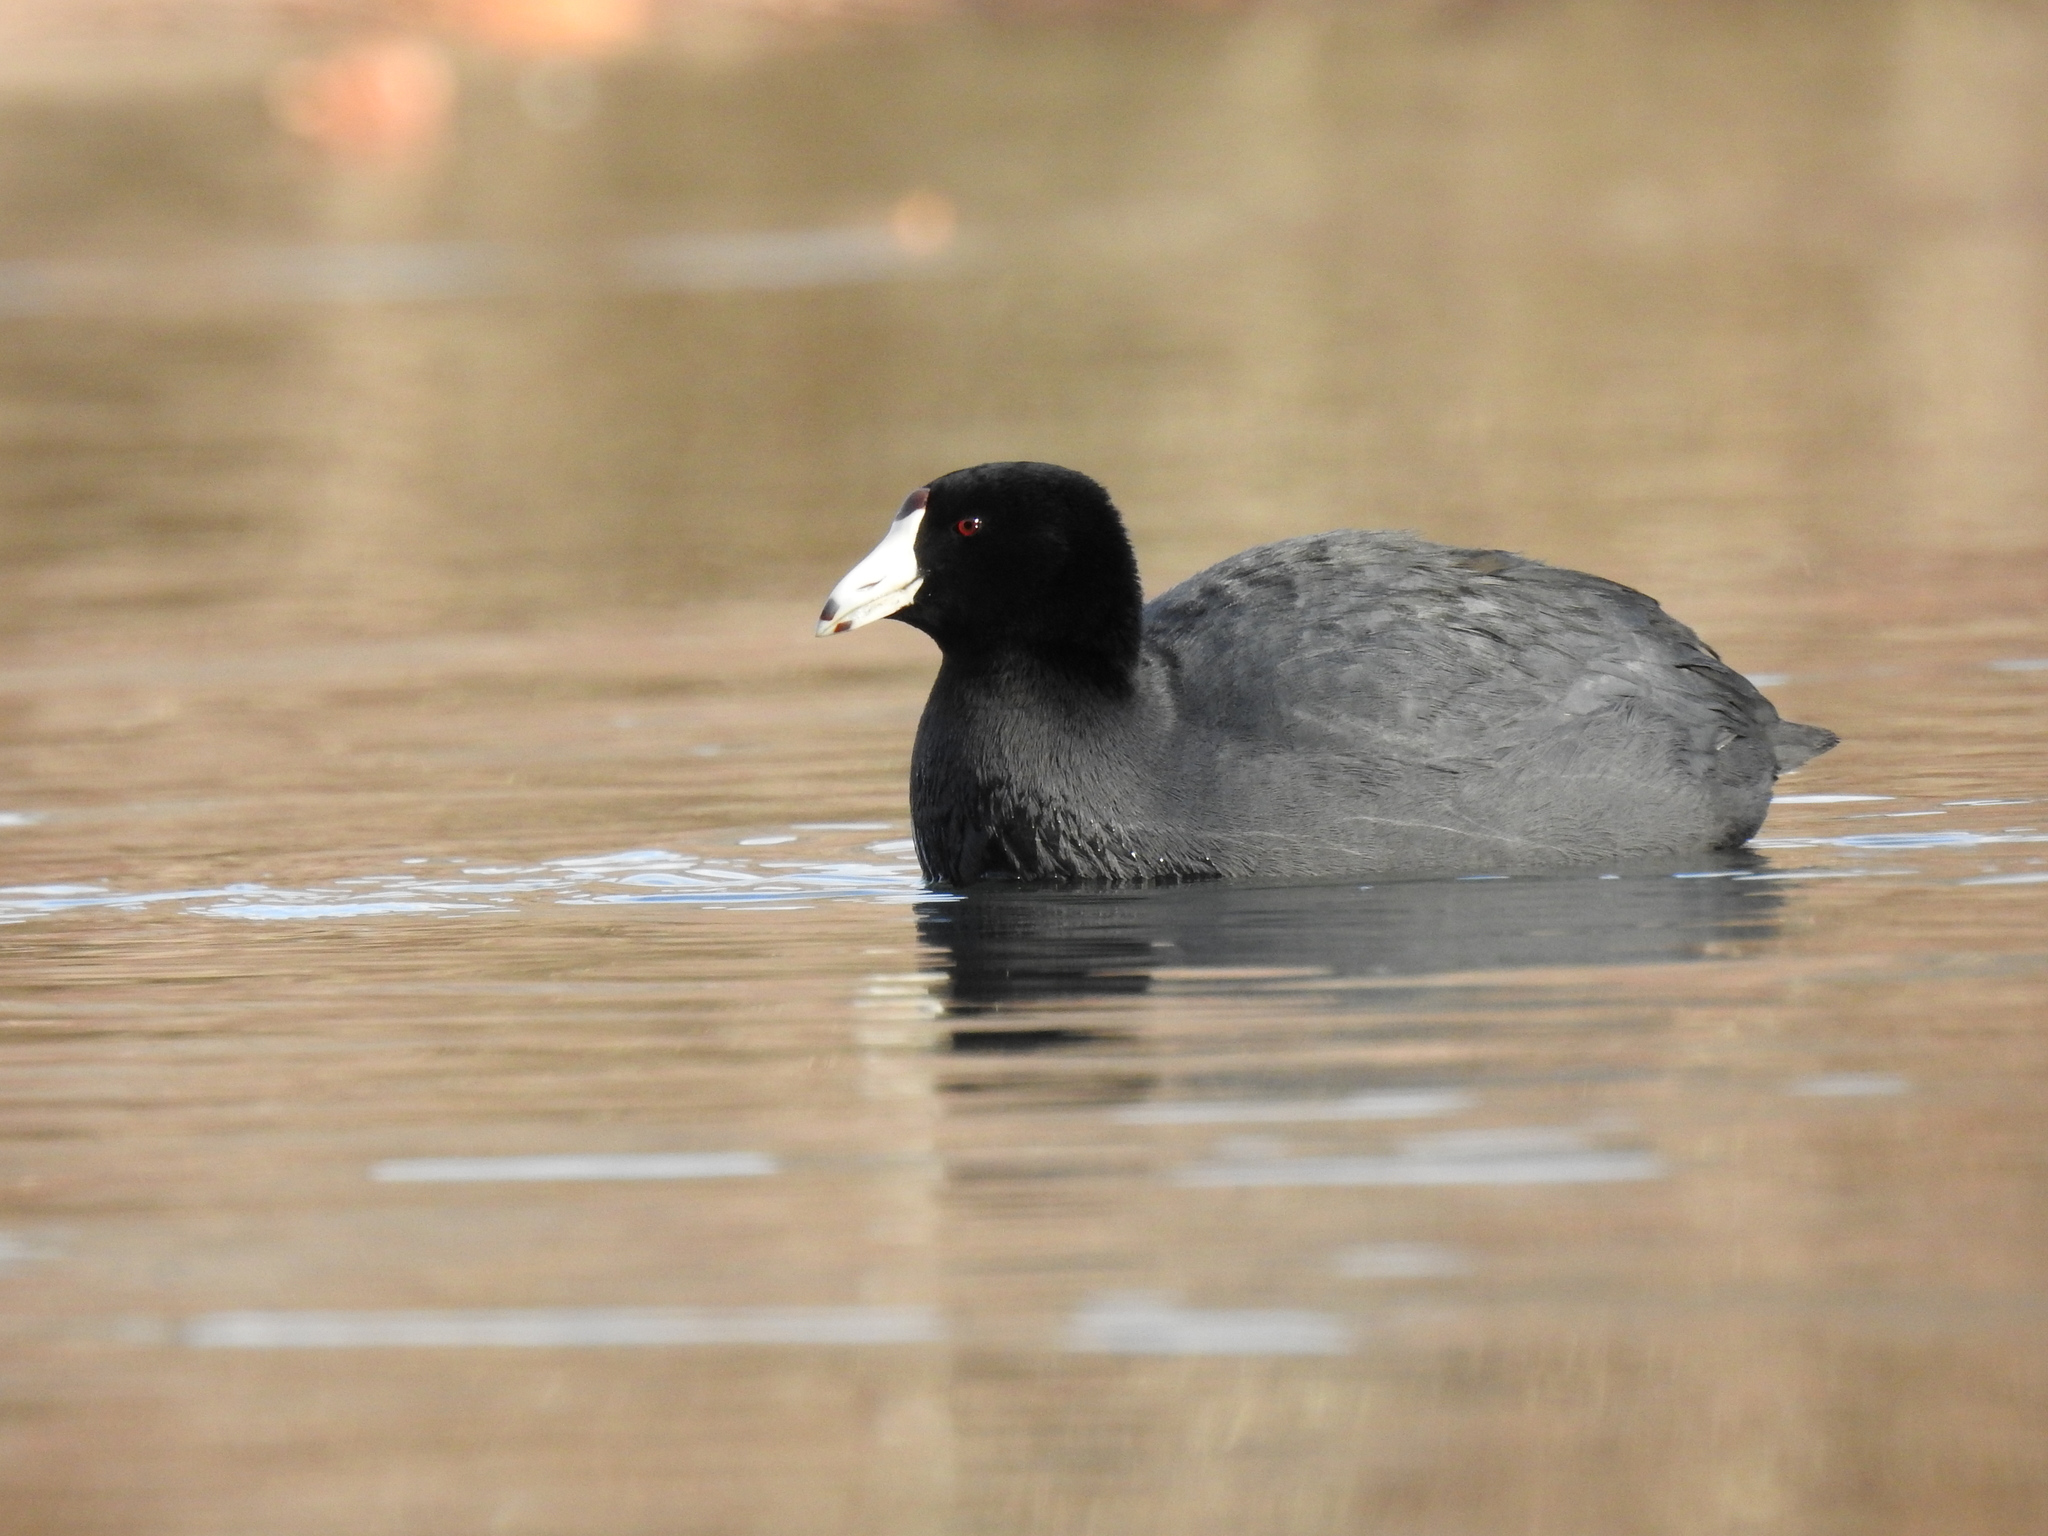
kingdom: Animalia
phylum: Chordata
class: Aves
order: Gruiformes
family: Rallidae
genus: Fulica
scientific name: Fulica americana
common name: American coot
